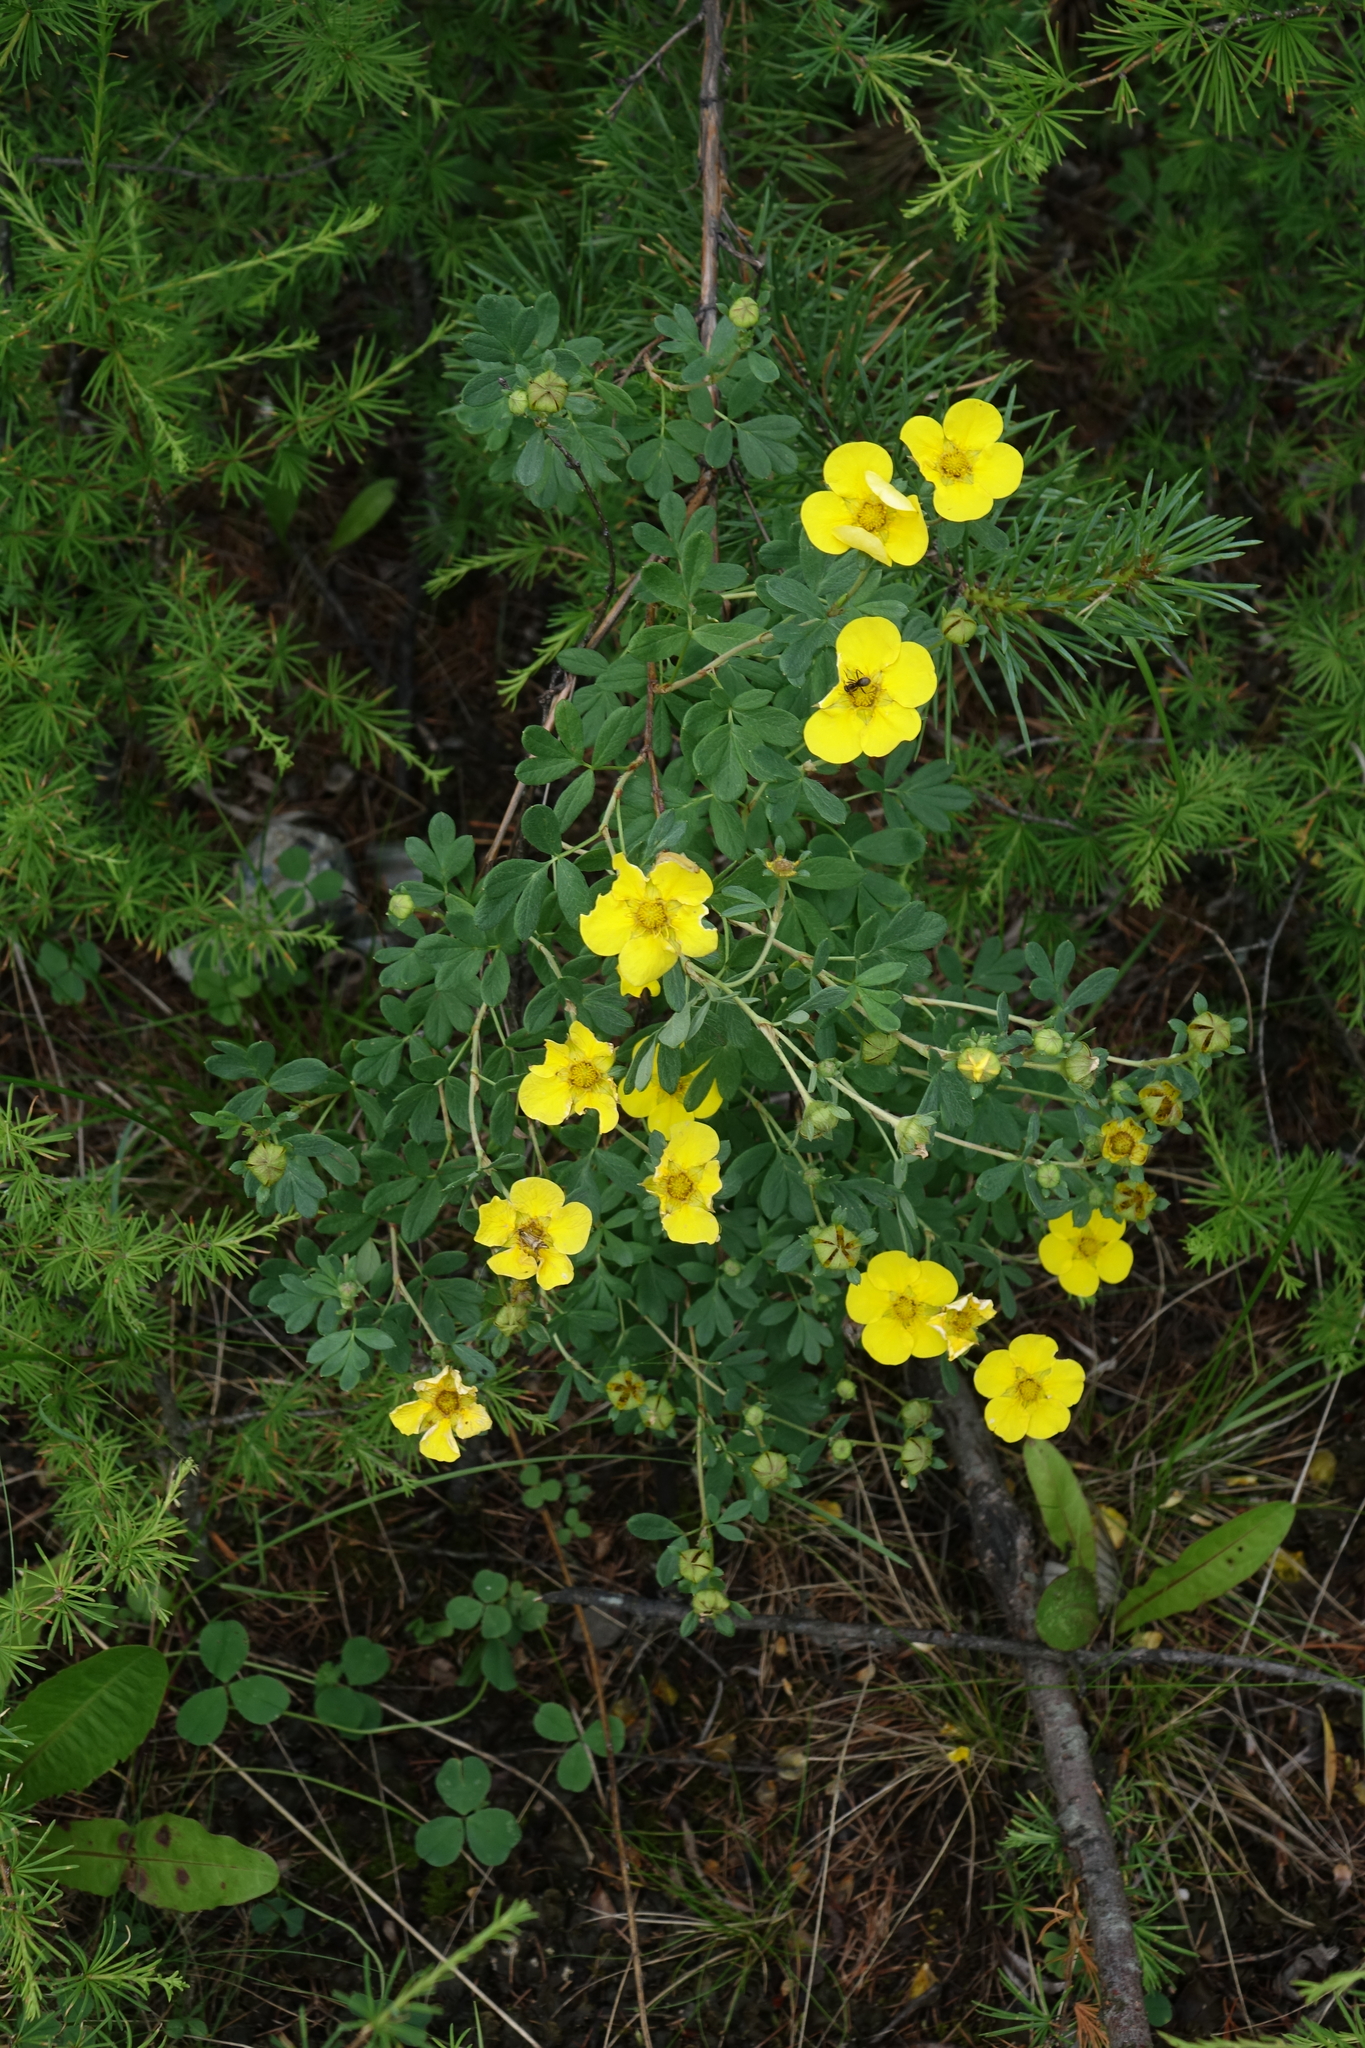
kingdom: Plantae
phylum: Tracheophyta
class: Magnoliopsida
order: Rosales
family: Rosaceae
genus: Dasiphora
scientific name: Dasiphora fruticosa
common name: Shrubby cinquefoil
